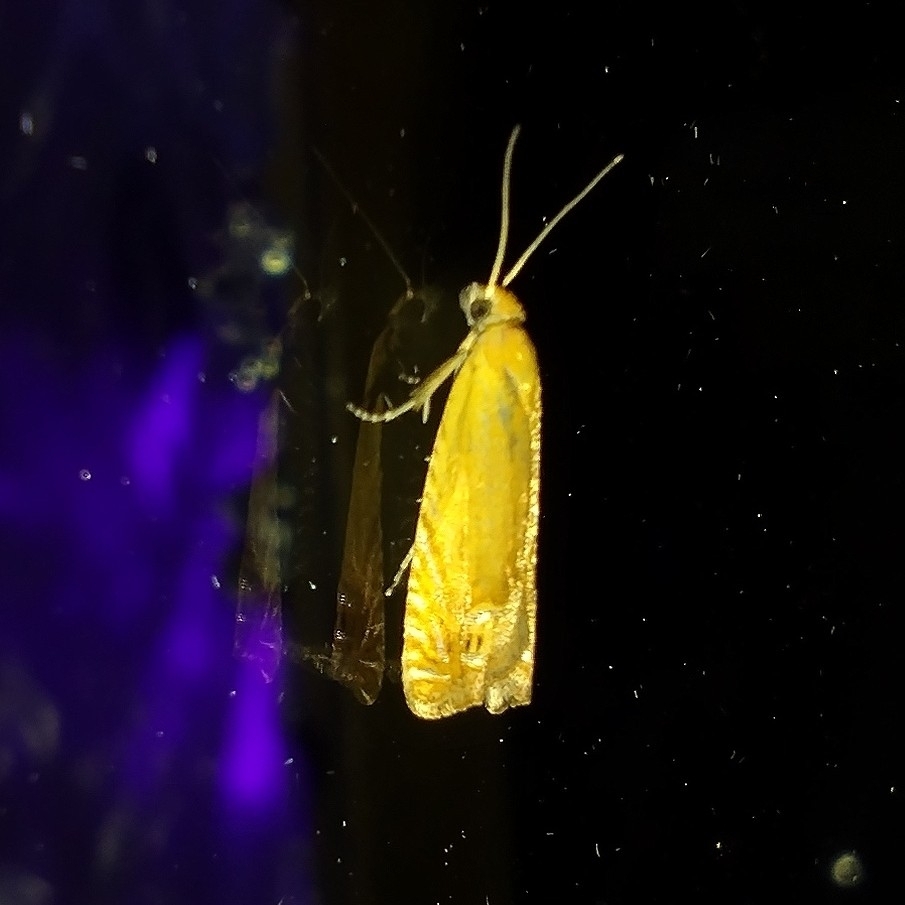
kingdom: Animalia
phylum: Arthropoda
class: Insecta
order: Lepidoptera
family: Tortricidae
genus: Lathronympha
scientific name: Lathronympha strigana
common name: Red piercer
